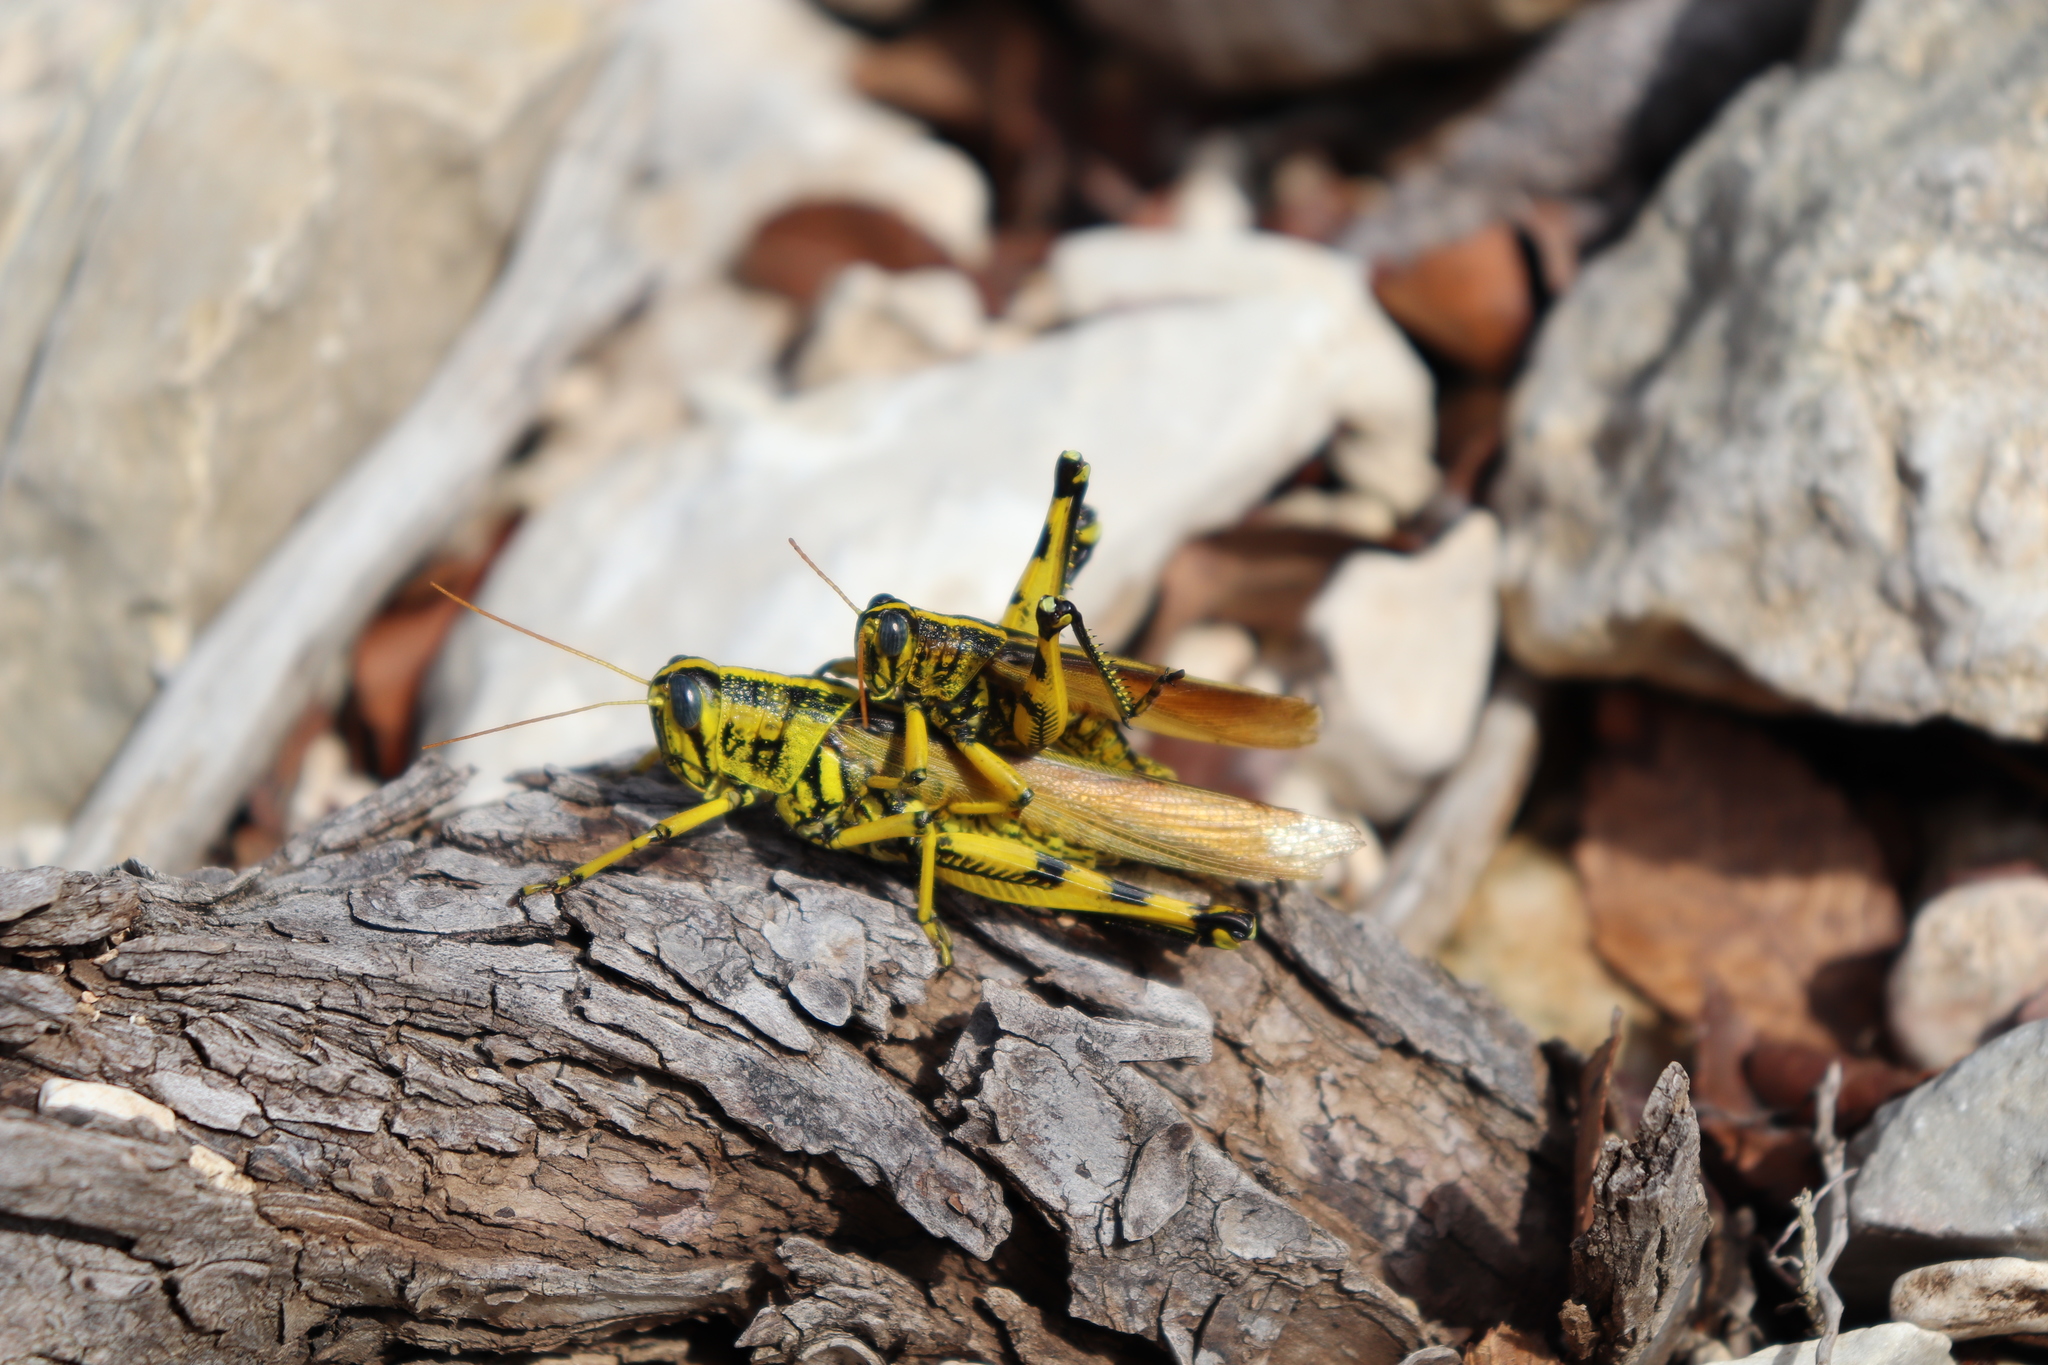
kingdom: Animalia
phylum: Arthropoda
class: Insecta
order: Orthoptera
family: Acrididae
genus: Schistocerca
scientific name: Schistocerca lineata
